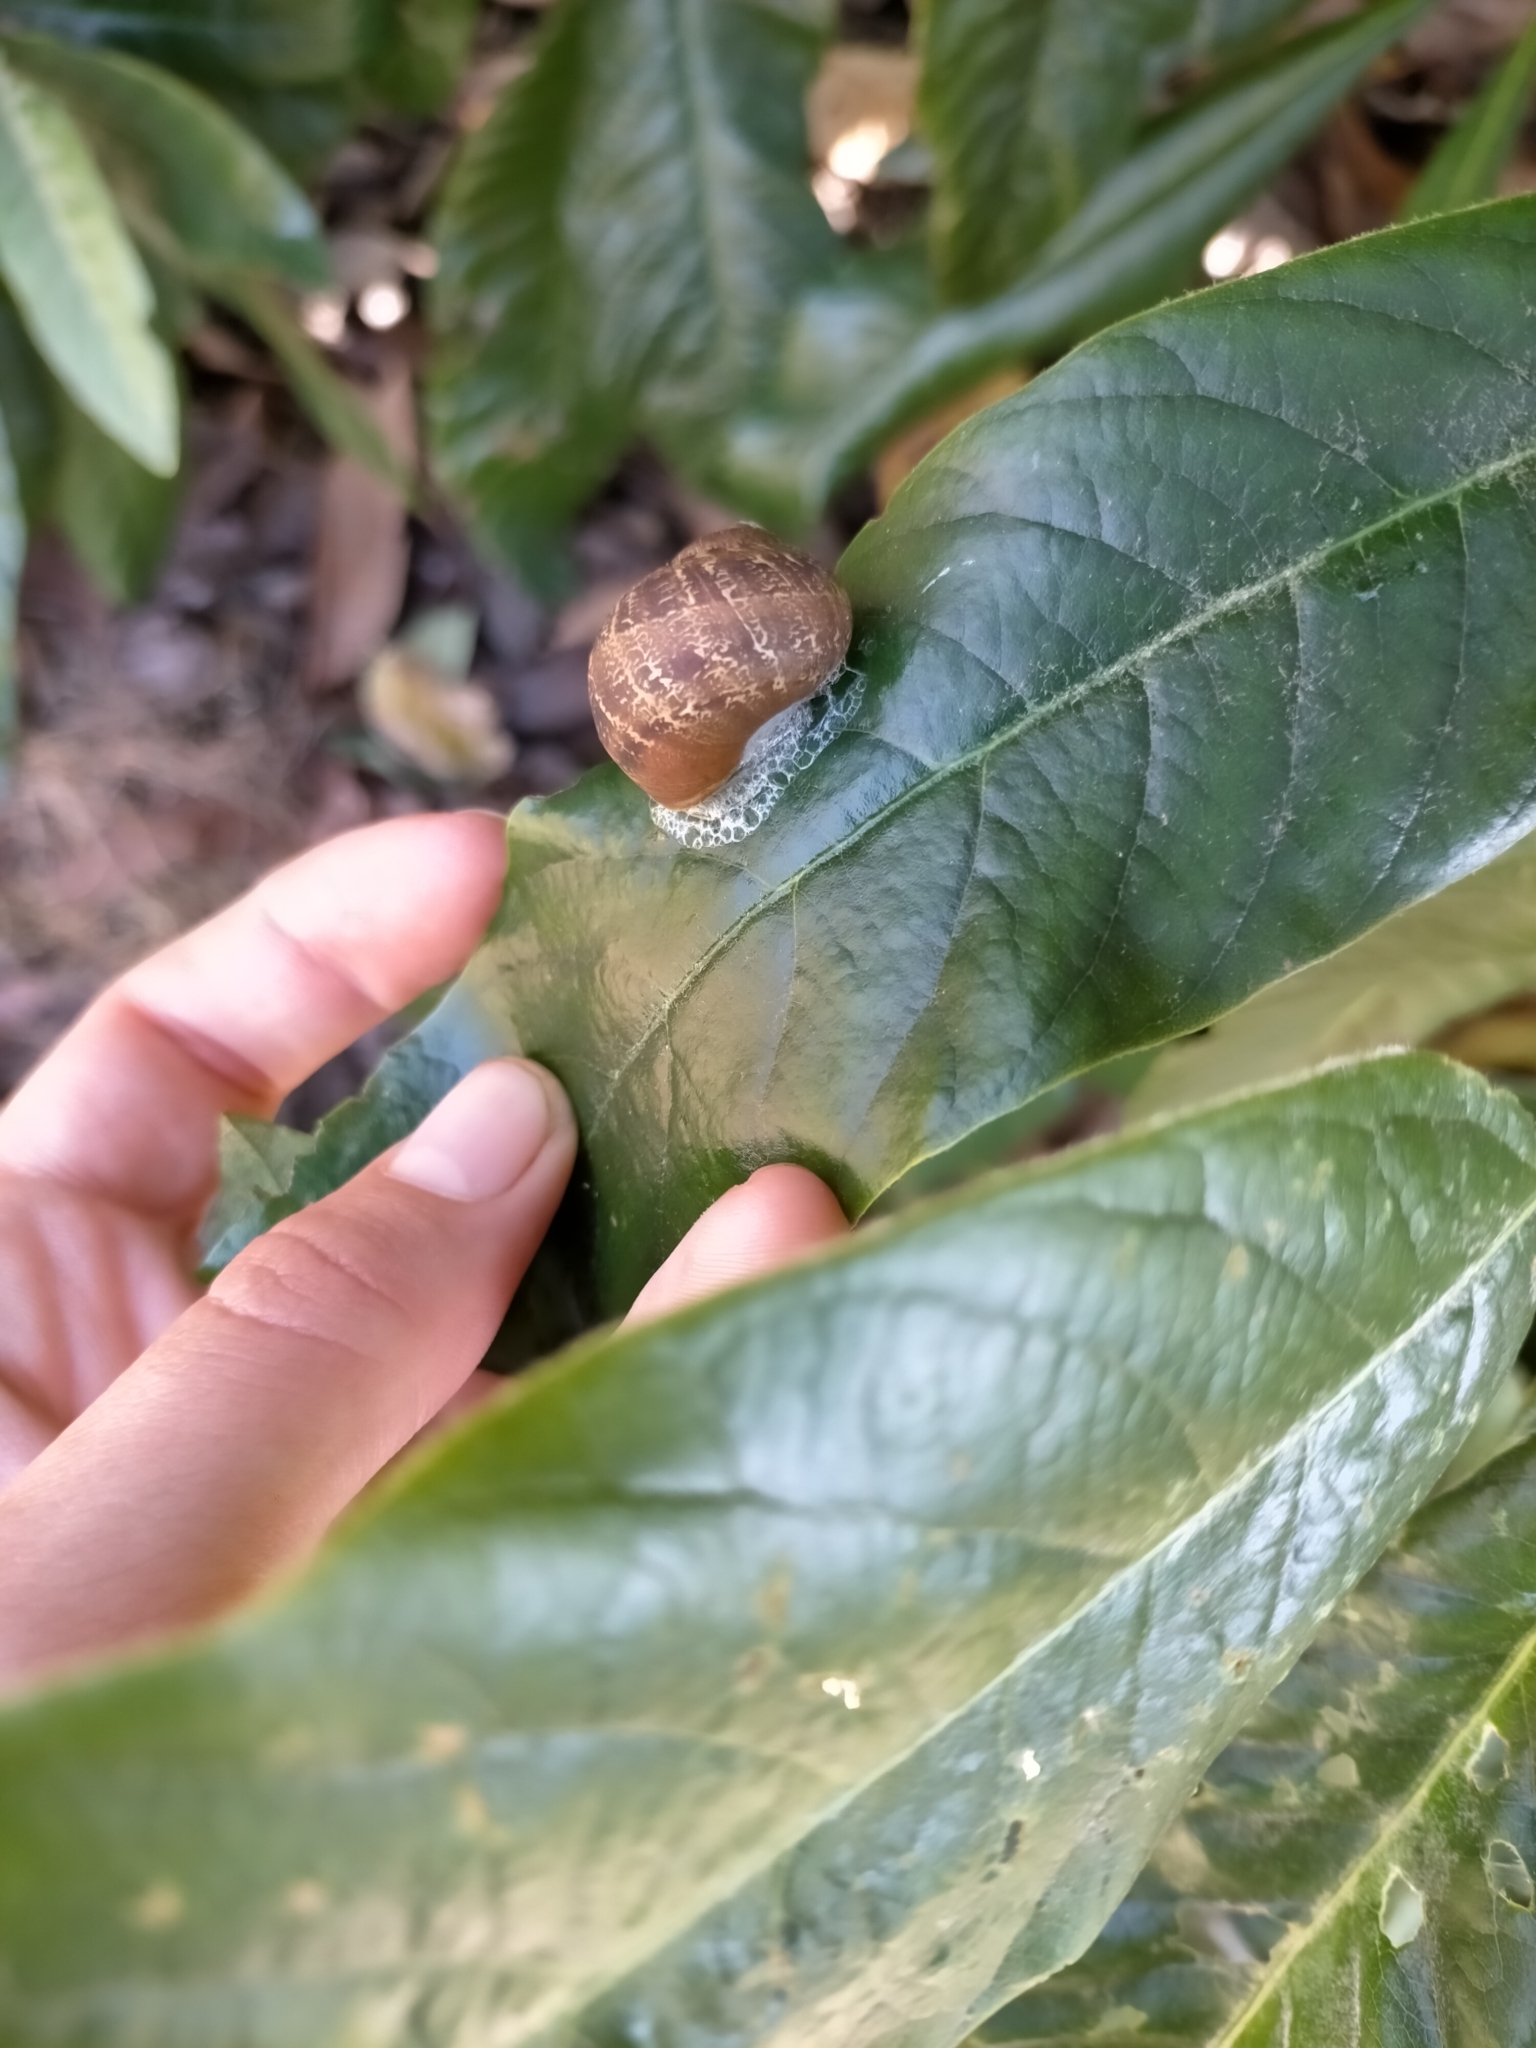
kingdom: Animalia
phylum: Mollusca
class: Gastropoda
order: Stylommatophora
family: Helicidae
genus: Cornu
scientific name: Cornu aspersum
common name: Brown garden snail
